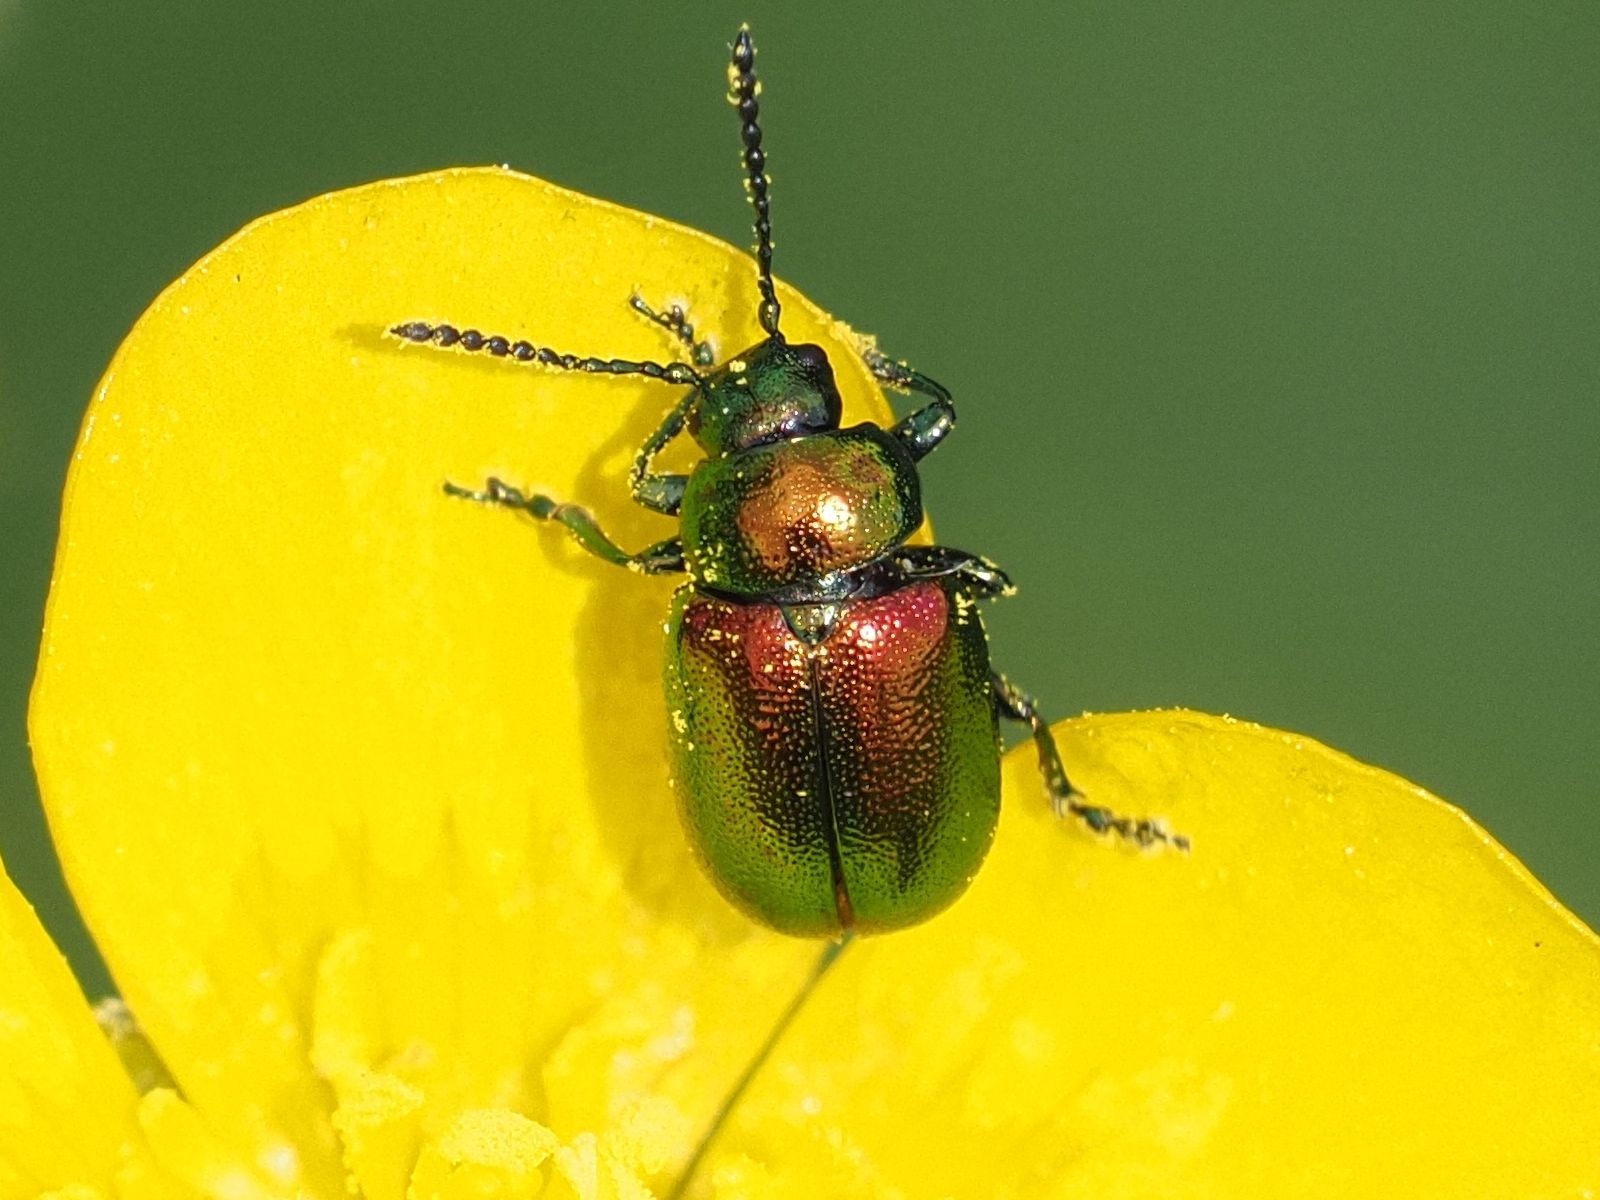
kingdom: Animalia
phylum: Arthropoda
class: Insecta
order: Coleoptera
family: Chrysomelidae
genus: Gastrophysa
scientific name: Gastrophysa viridula
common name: Green dock beetle
